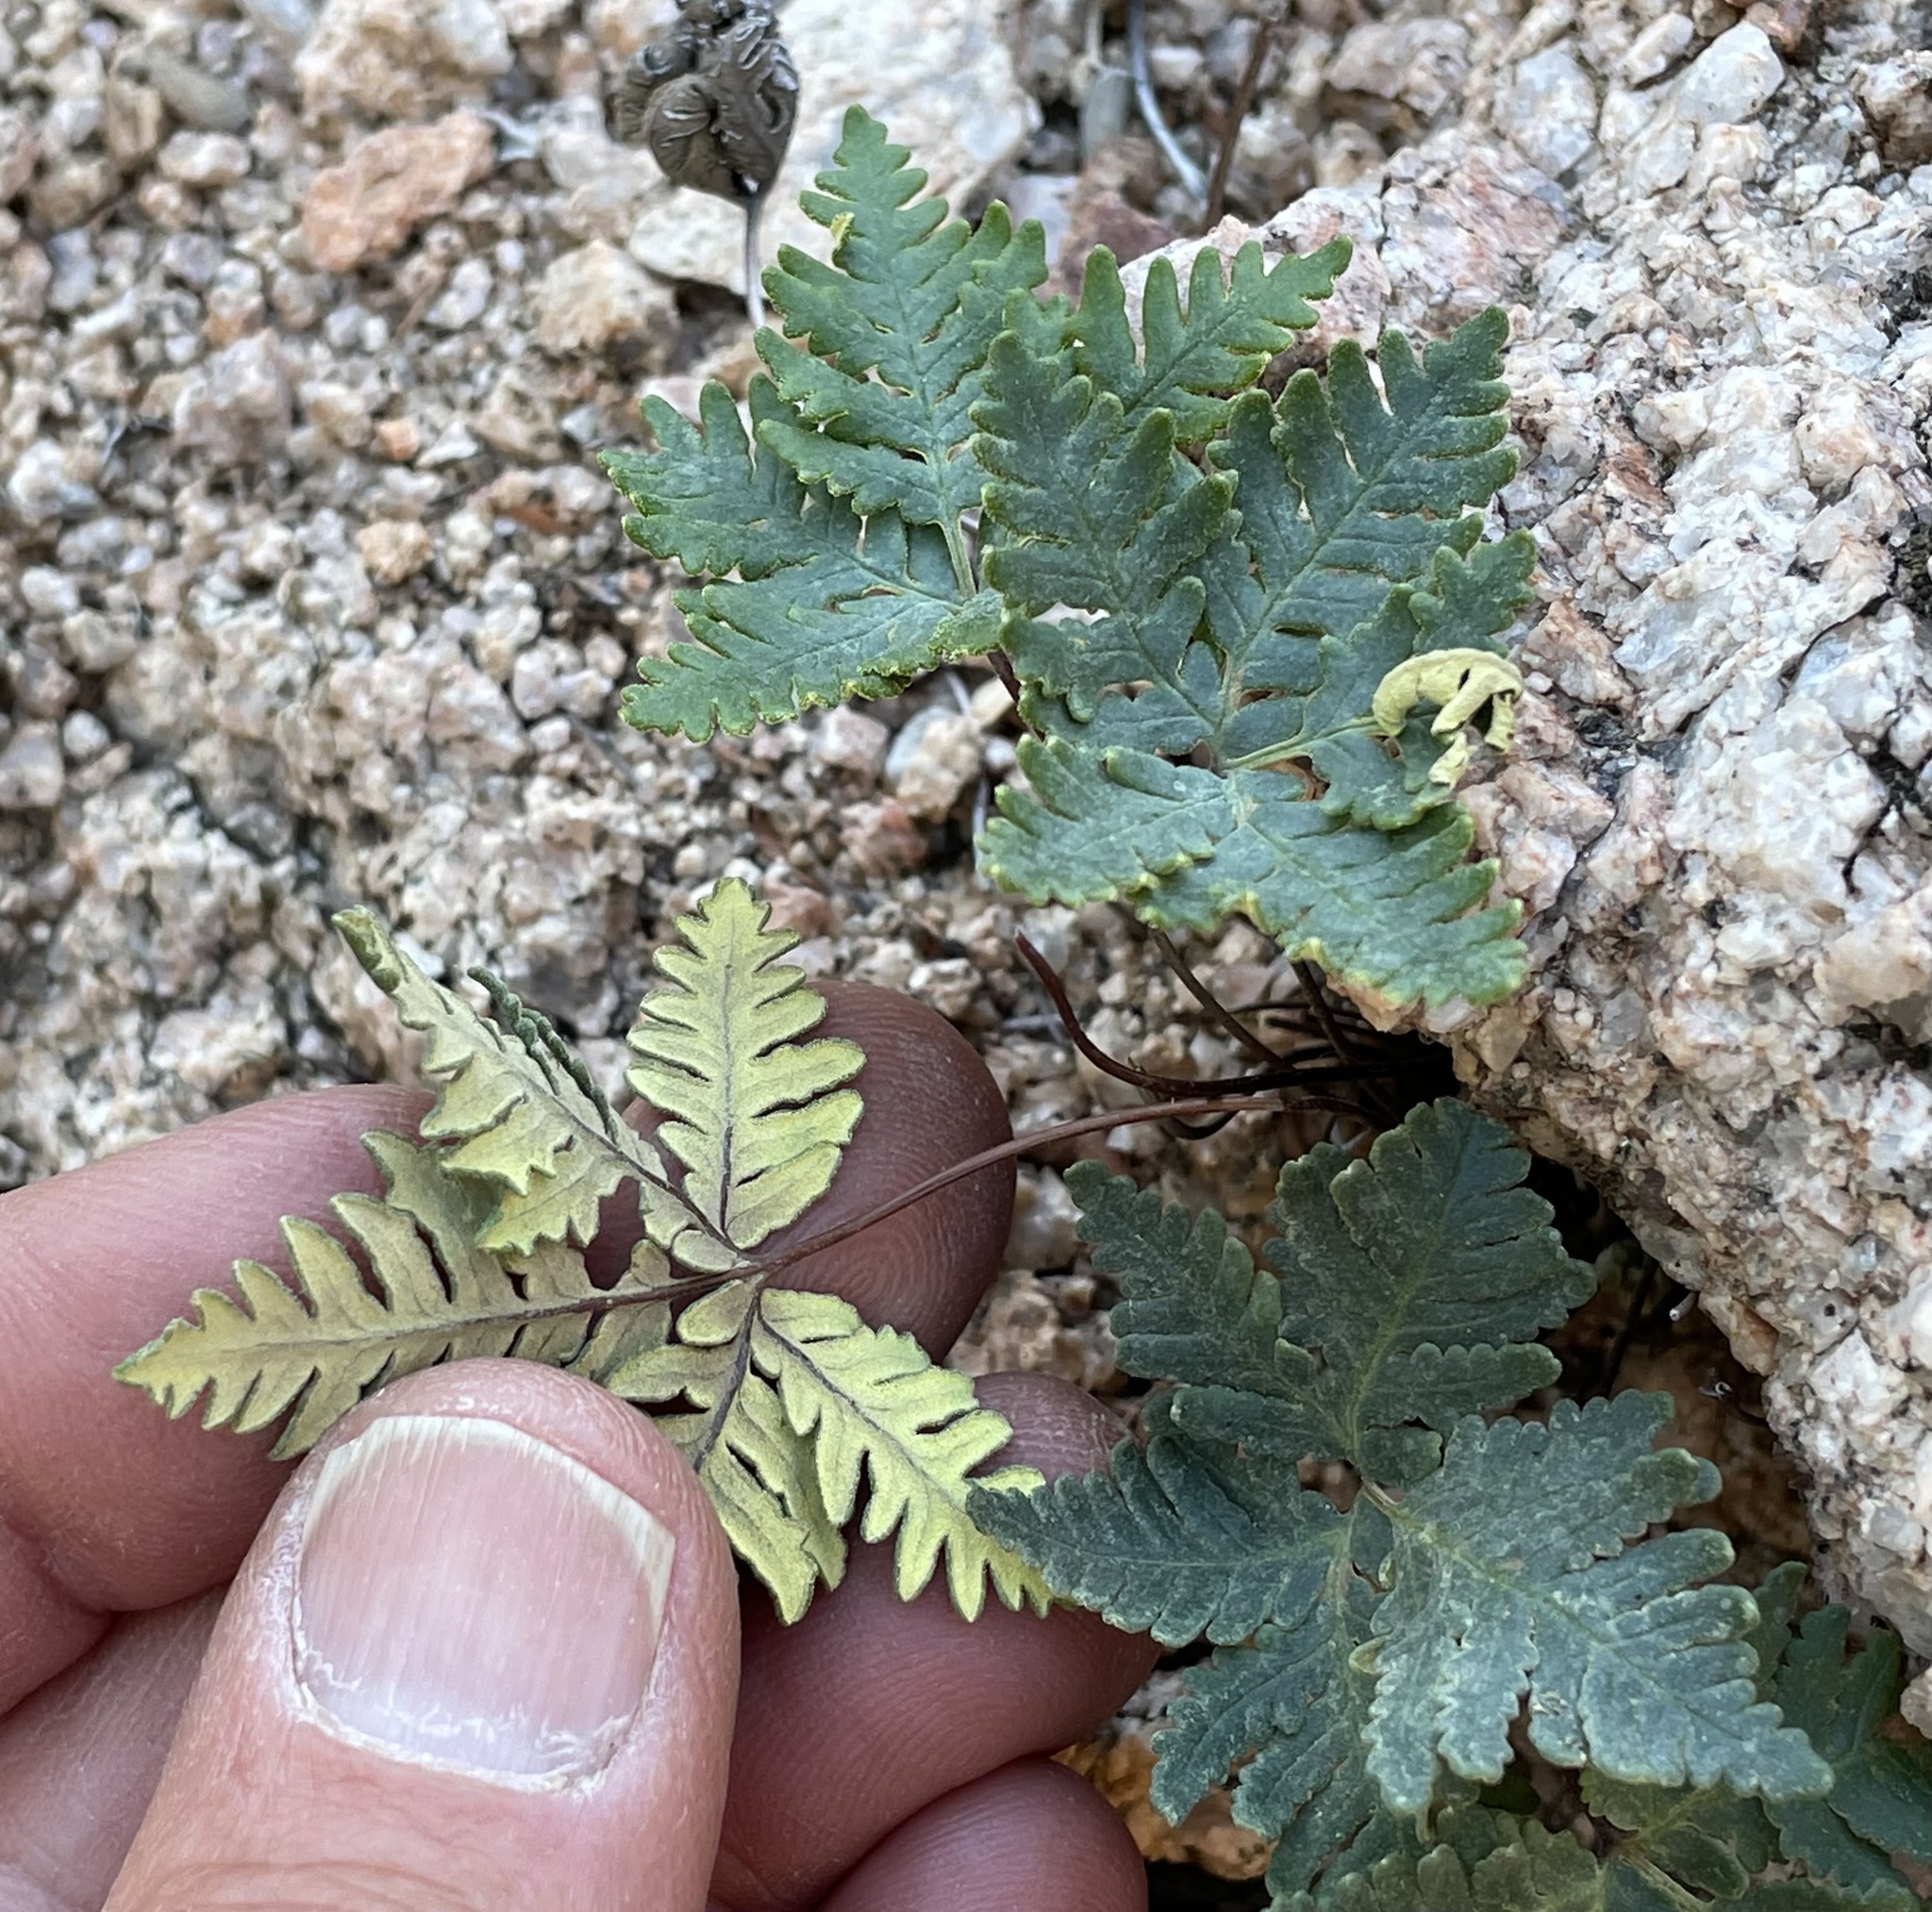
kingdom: Plantae
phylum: Tracheophyta
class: Polypodiopsida
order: Polypodiales
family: Pteridaceae
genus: Notholaena
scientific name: Notholaena standleyi
